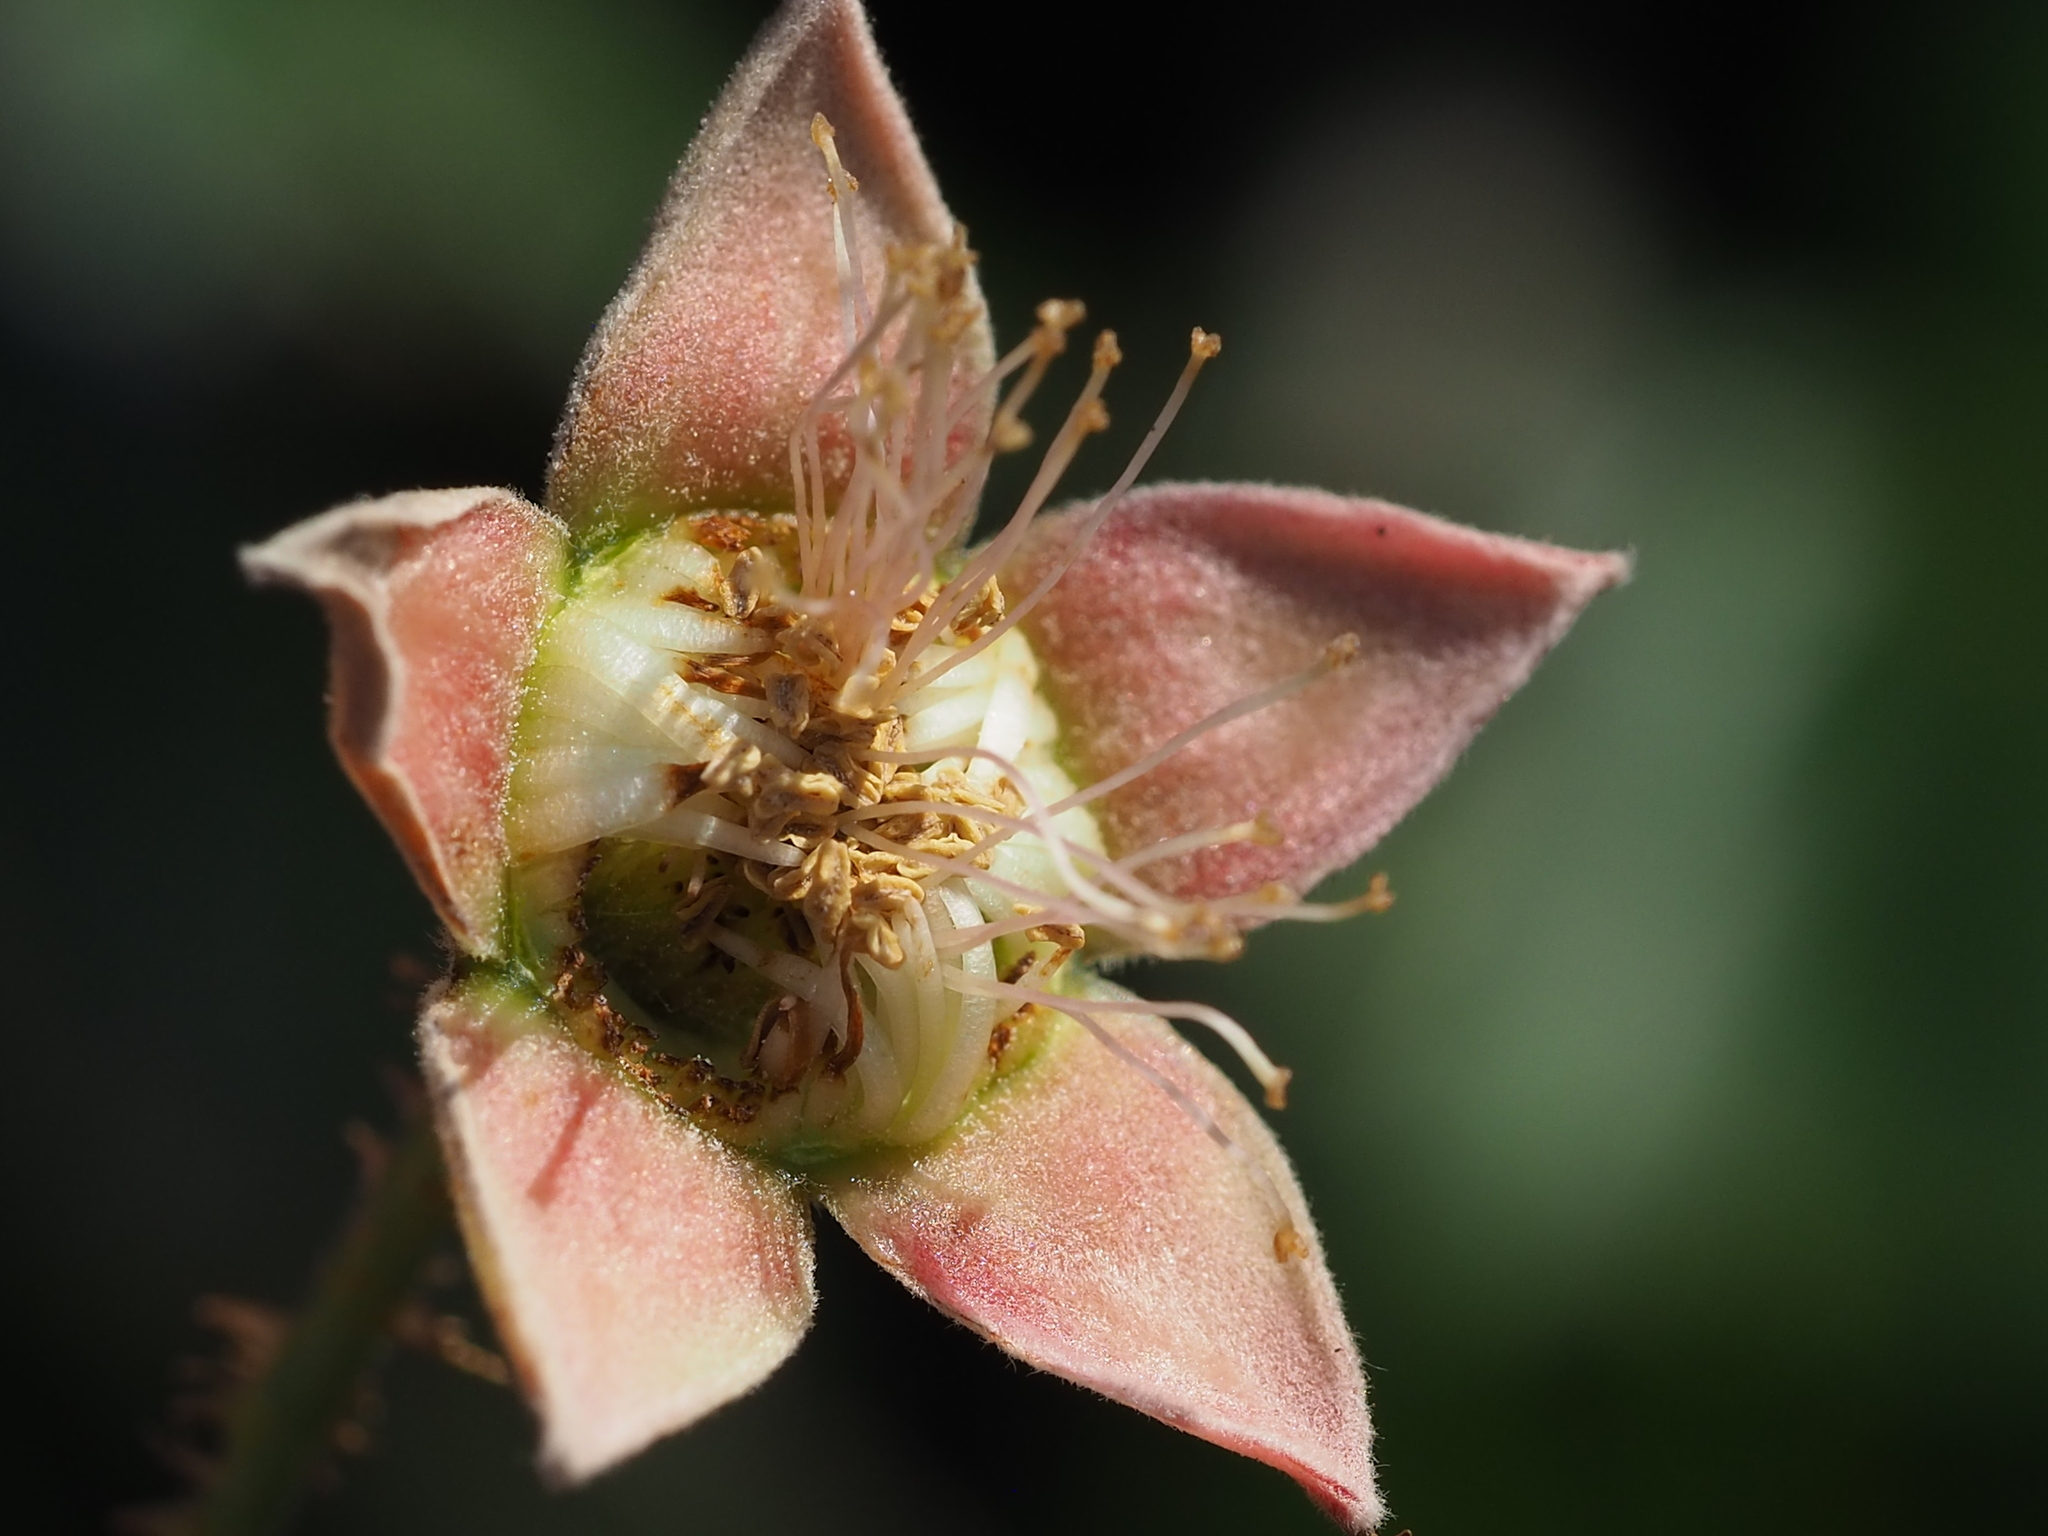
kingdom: Plantae
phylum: Tracheophyta
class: Magnoliopsida
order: Rosales
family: Rosaceae
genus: Rubus
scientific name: Rubus swinhoei
